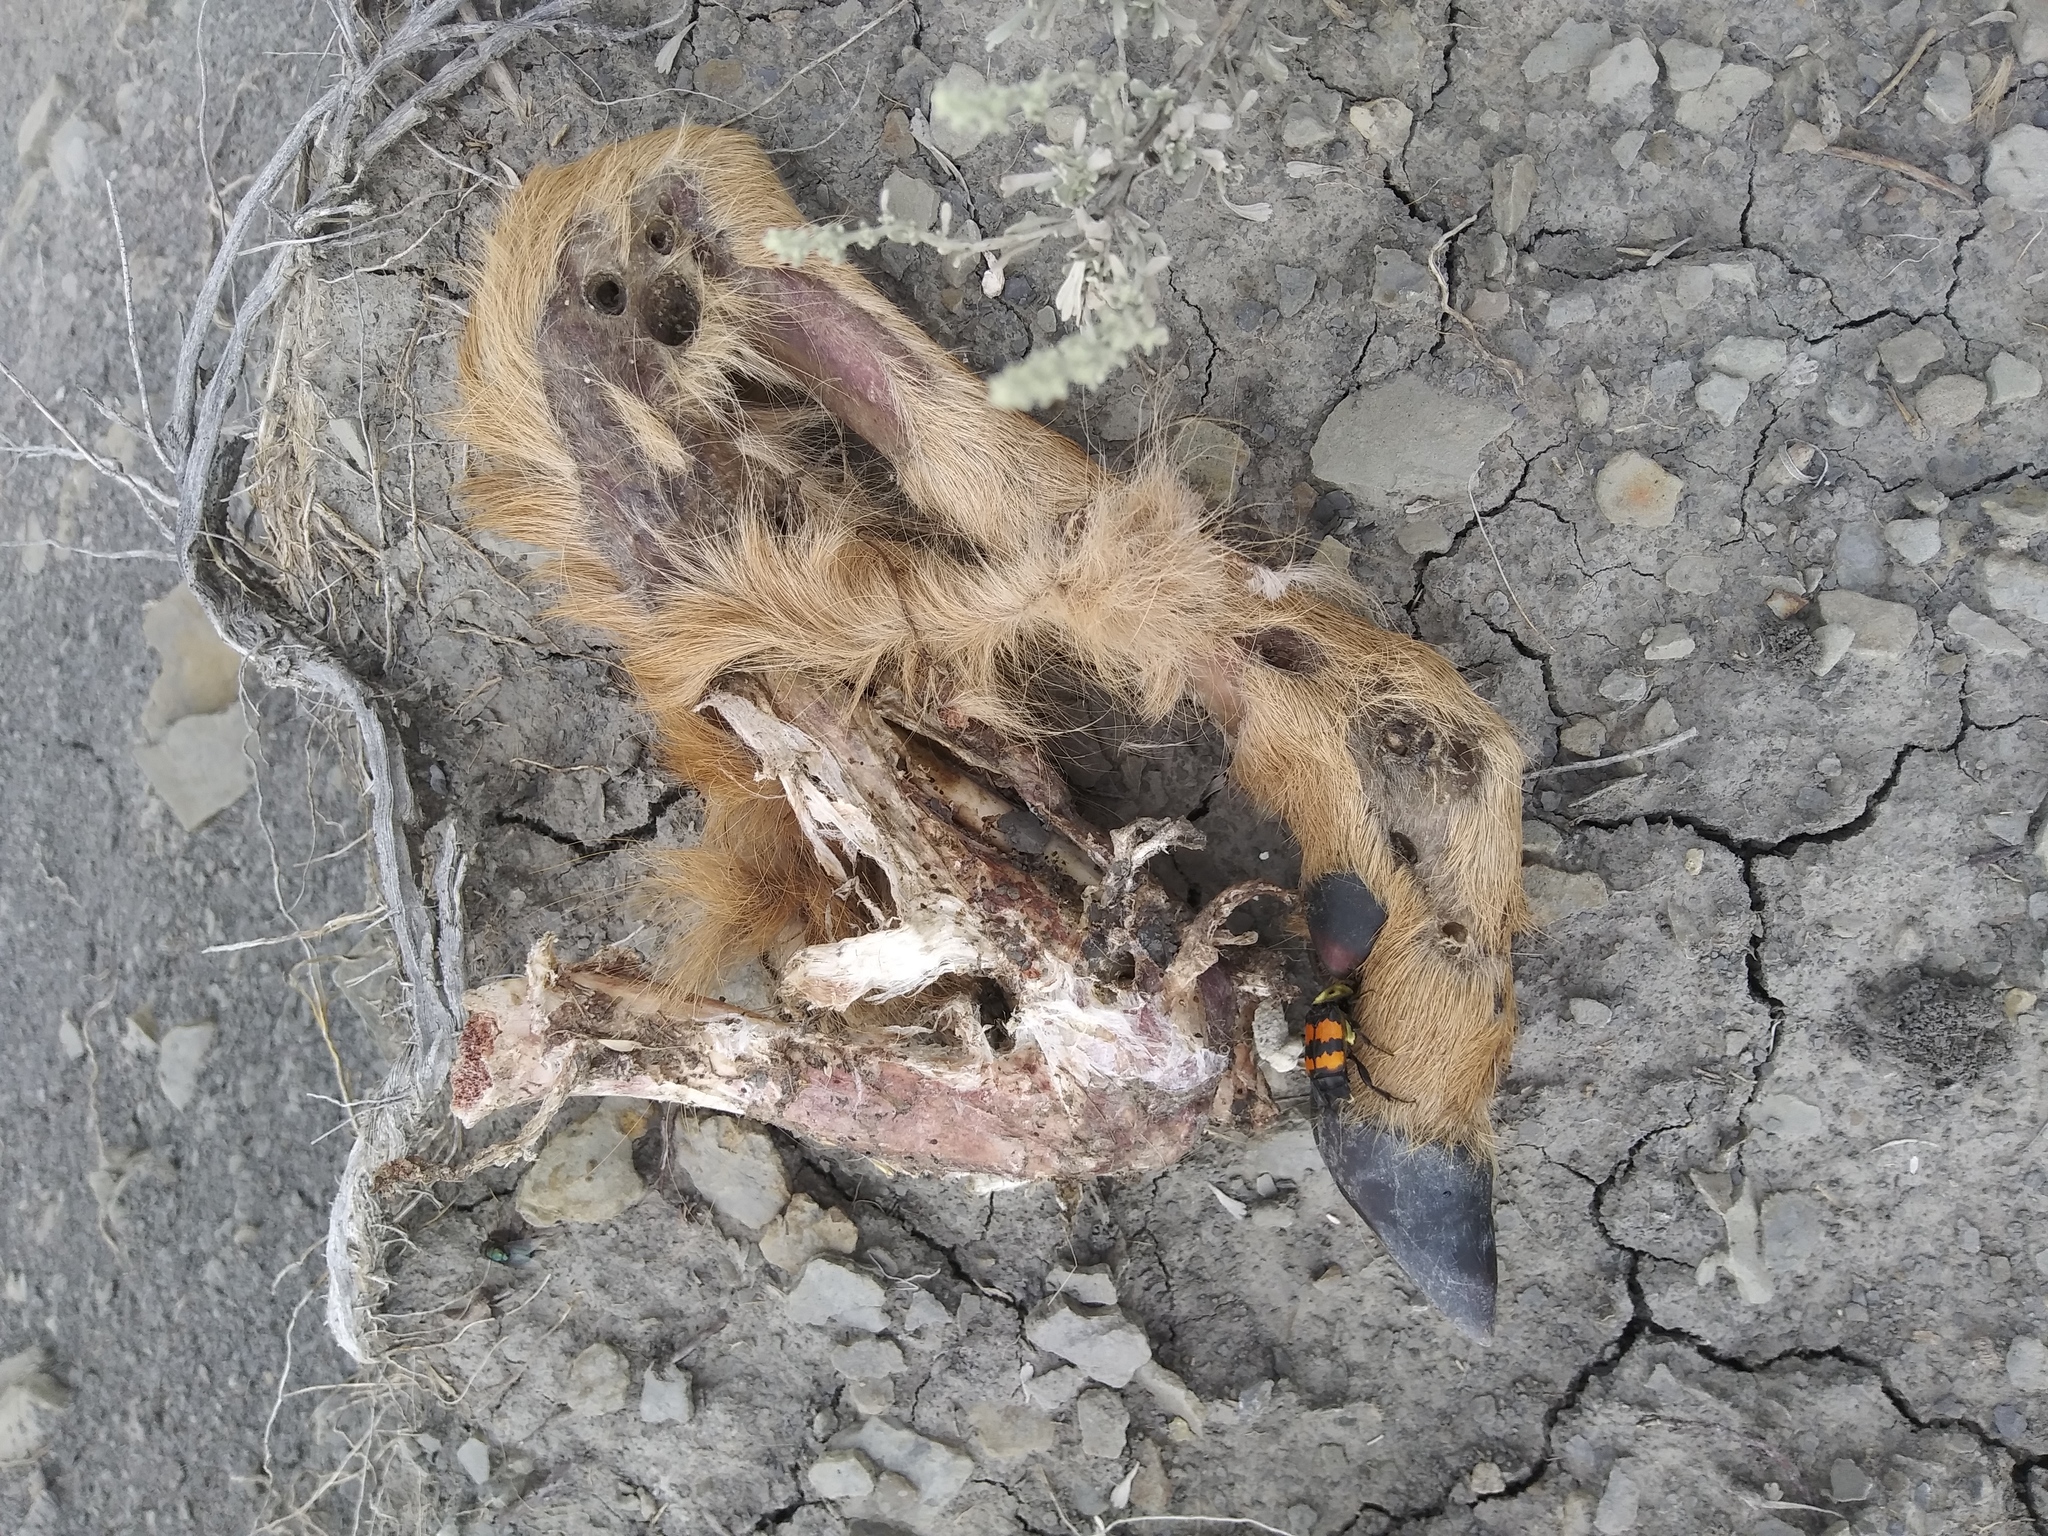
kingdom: Animalia
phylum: Arthropoda
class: Insecta
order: Coleoptera
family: Staphylinidae
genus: Nicrophorus
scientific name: Nicrophorus tomentosus
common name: Tomentose burying beetle
